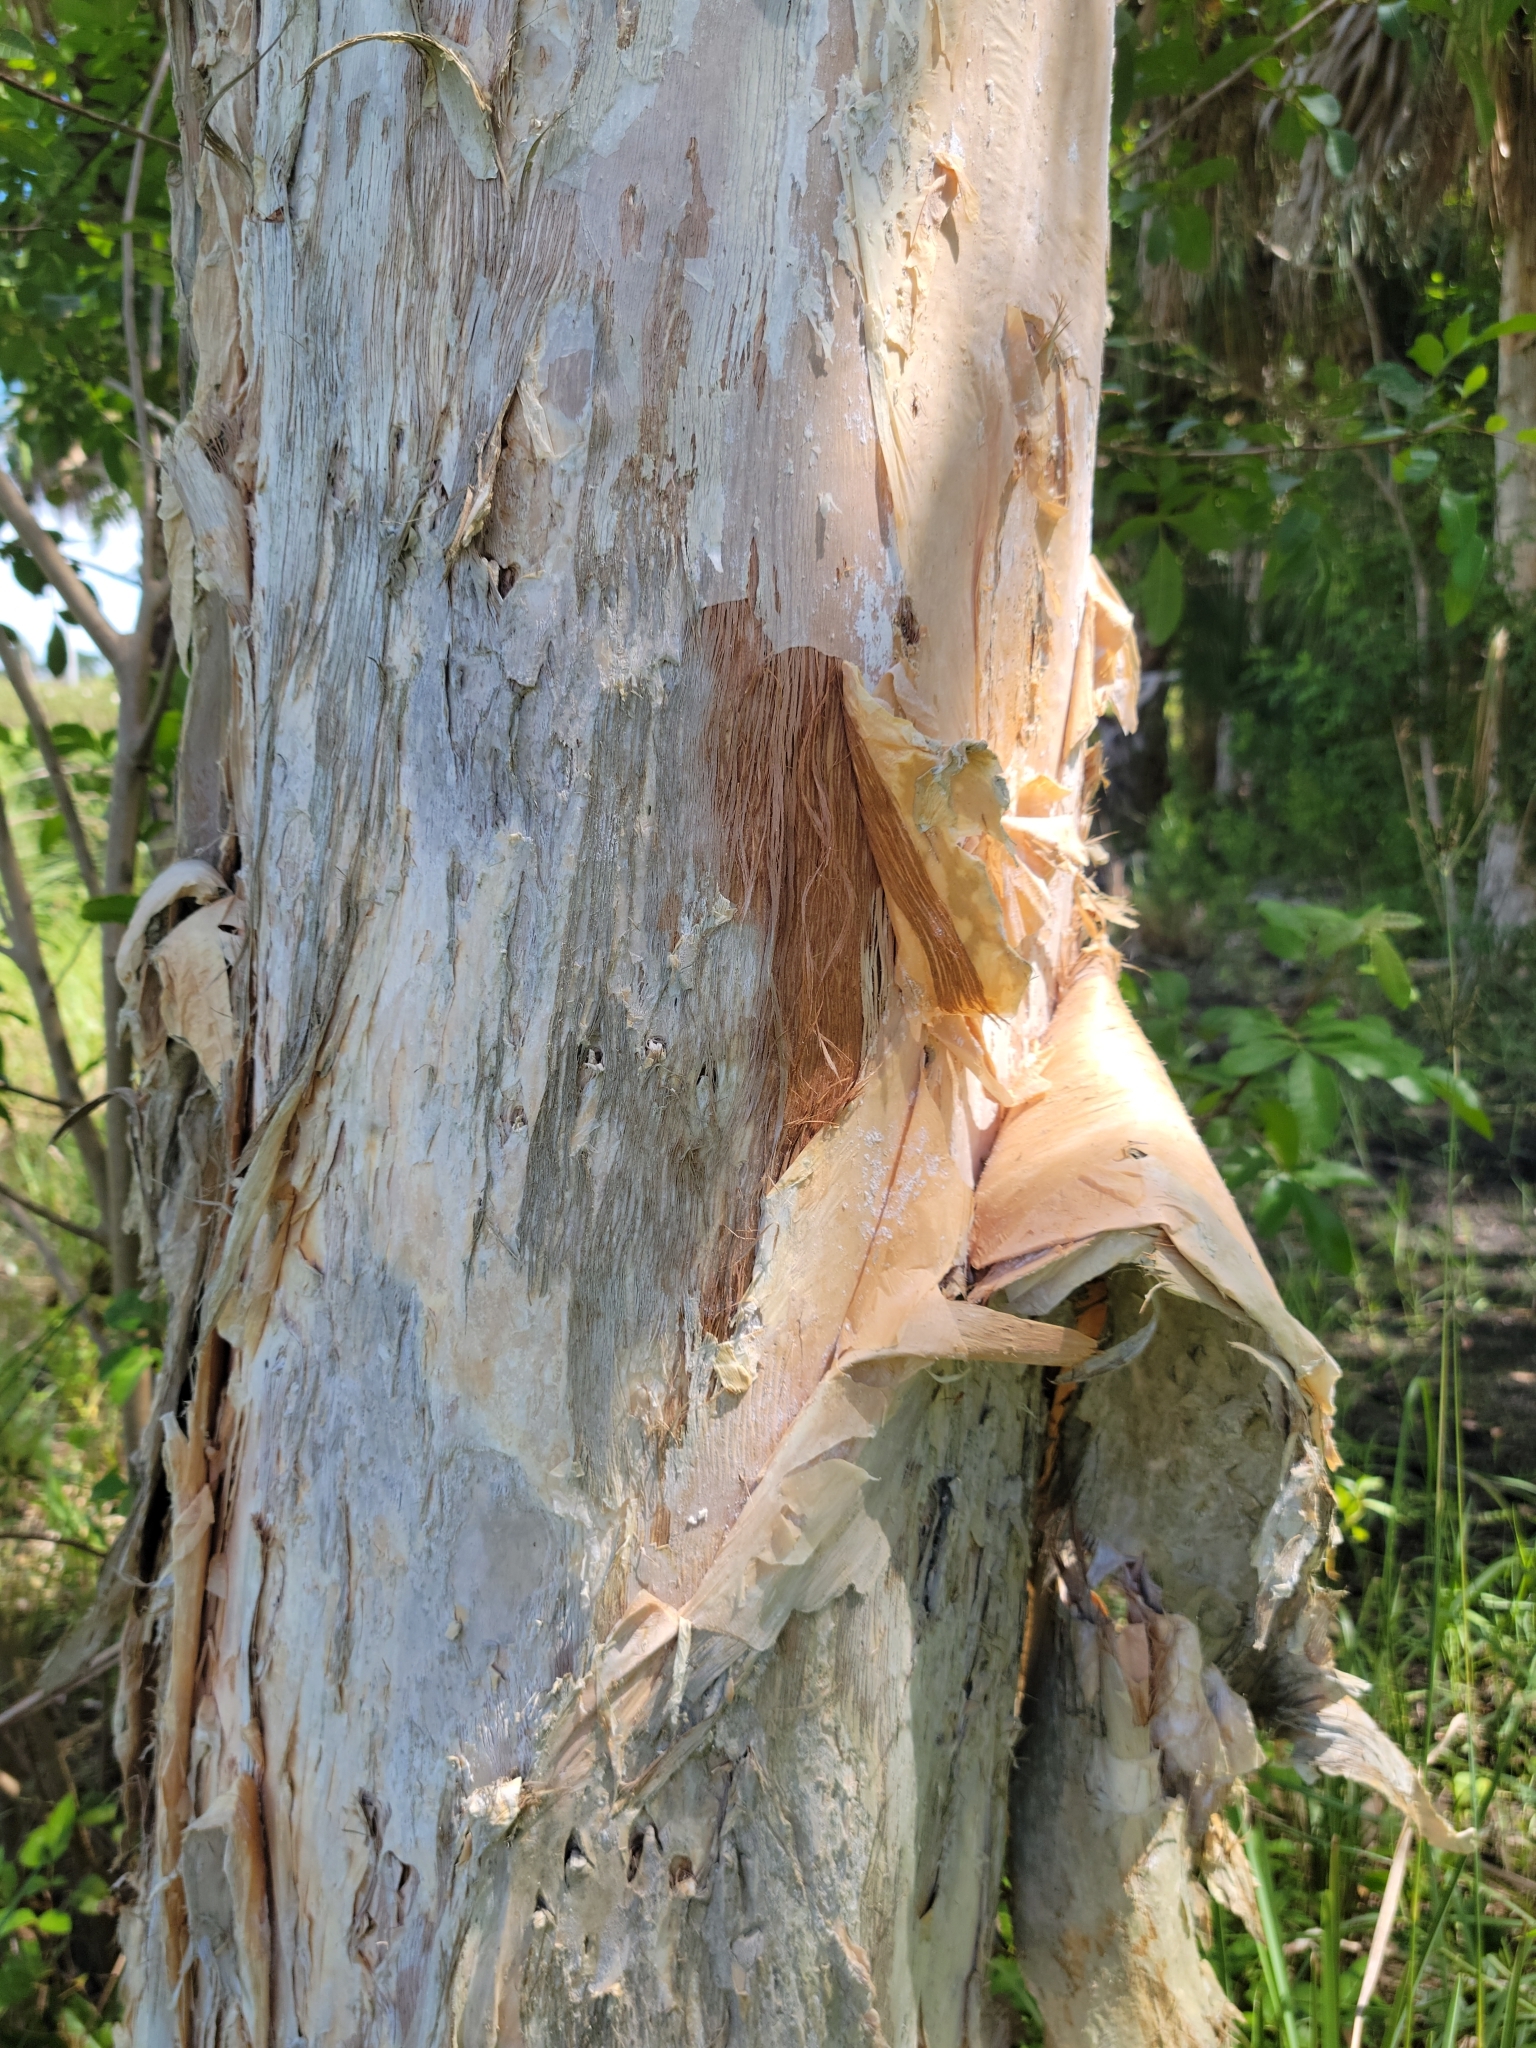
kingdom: Plantae
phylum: Tracheophyta
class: Magnoliopsida
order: Myrtales
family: Myrtaceae
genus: Melaleuca
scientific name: Melaleuca quinquenervia
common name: Punktree
